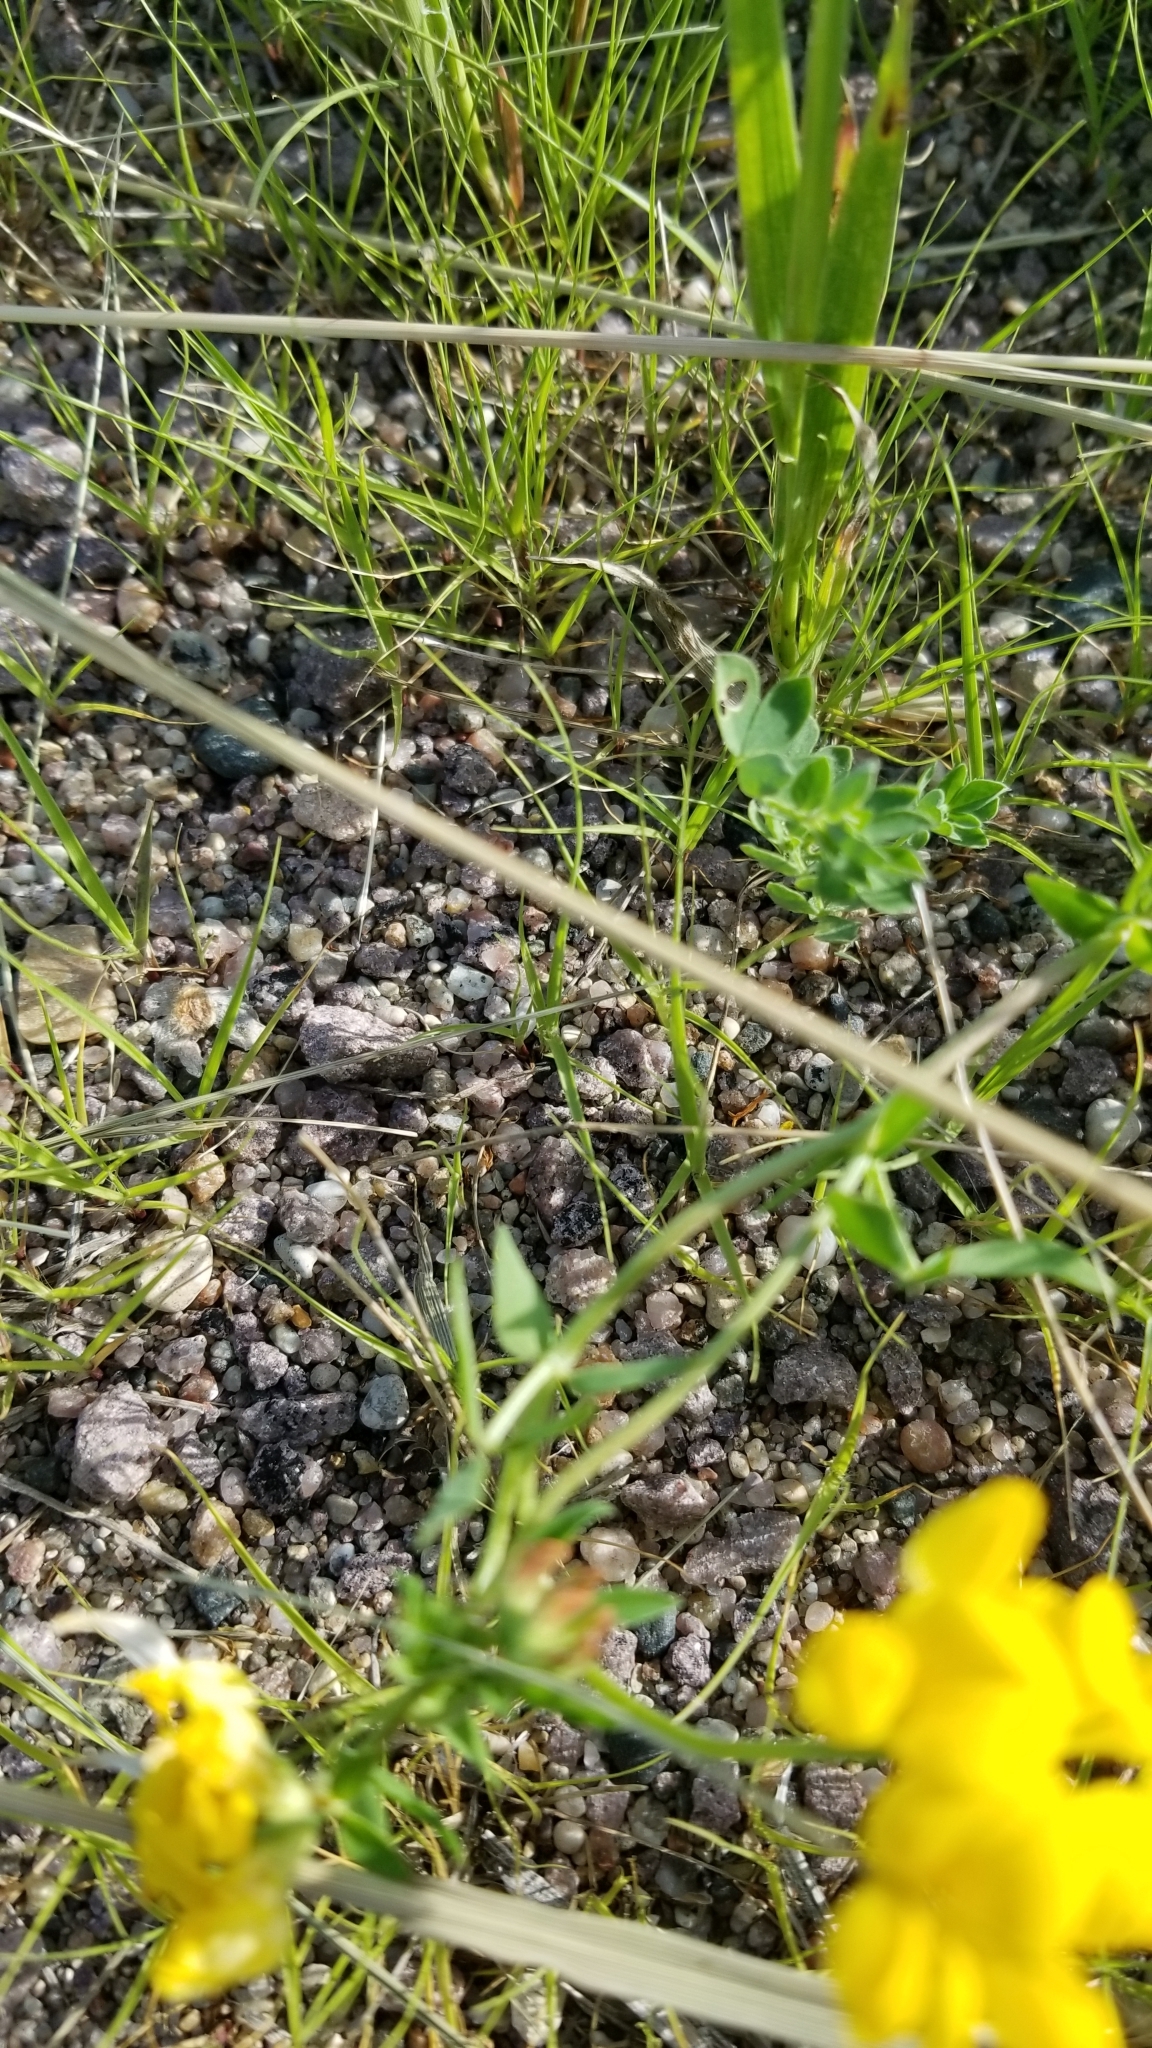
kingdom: Plantae
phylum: Tracheophyta
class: Magnoliopsida
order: Fabales
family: Fabaceae
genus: Lotus
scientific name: Lotus corniculatus
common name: Common bird's-foot-trefoil
